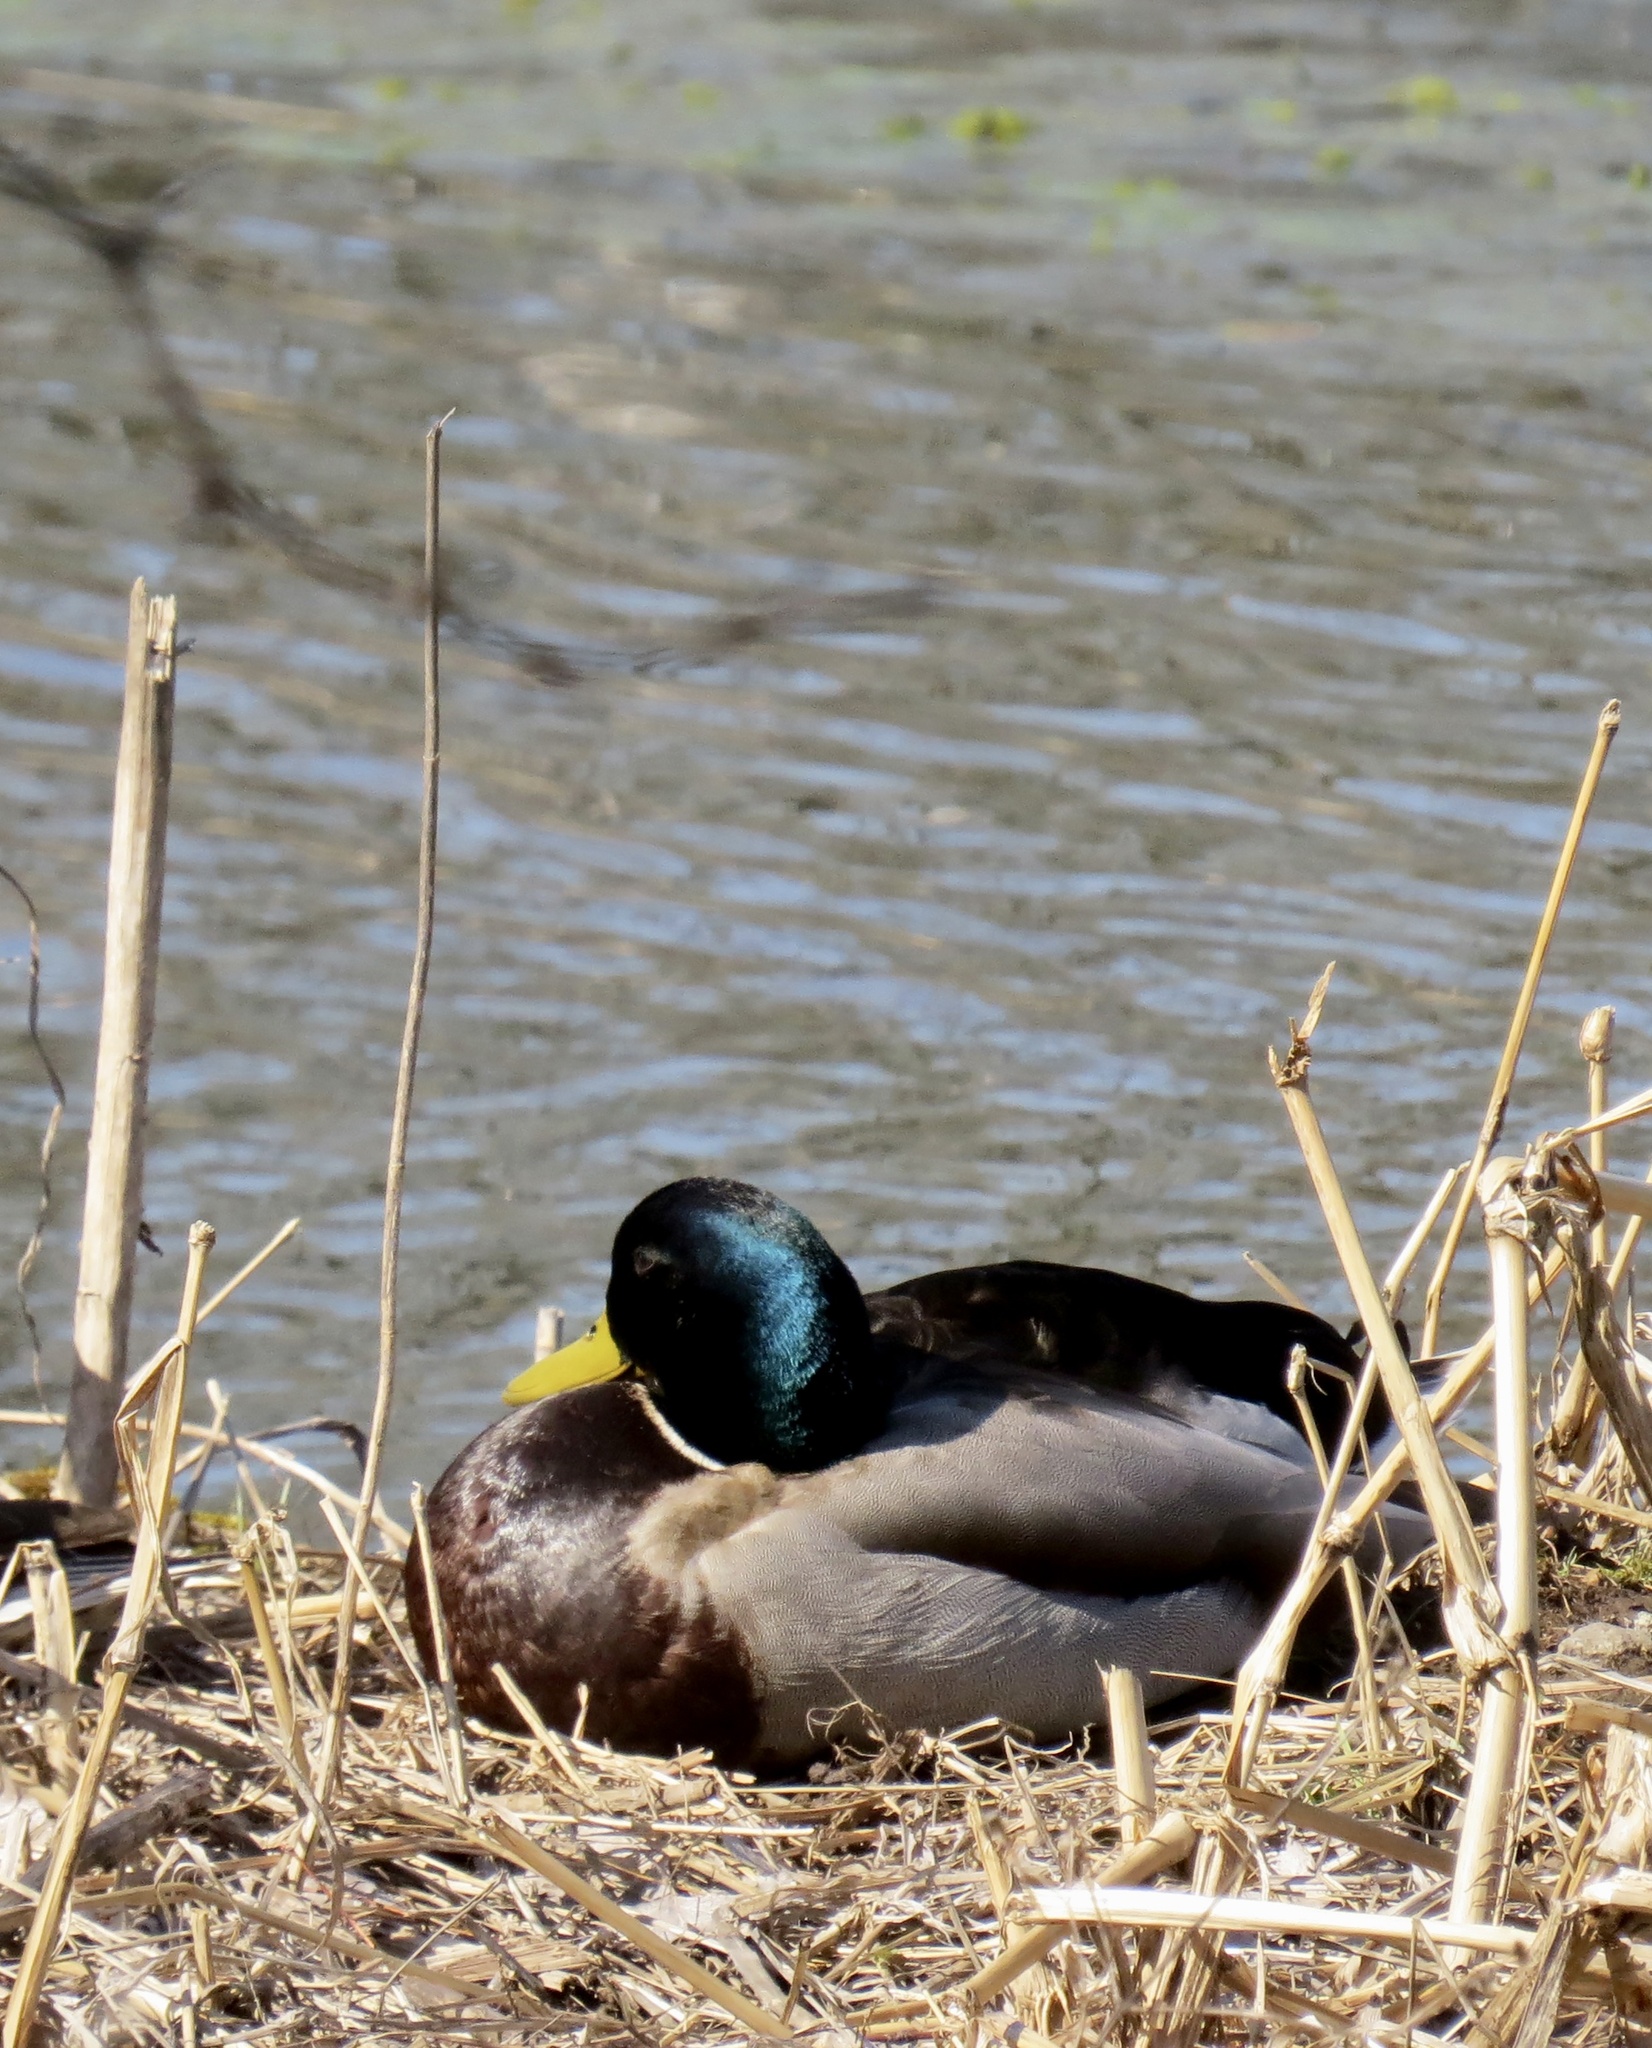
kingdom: Animalia
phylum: Chordata
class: Aves
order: Anseriformes
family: Anatidae
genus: Anas
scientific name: Anas platyrhynchos
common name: Mallard
